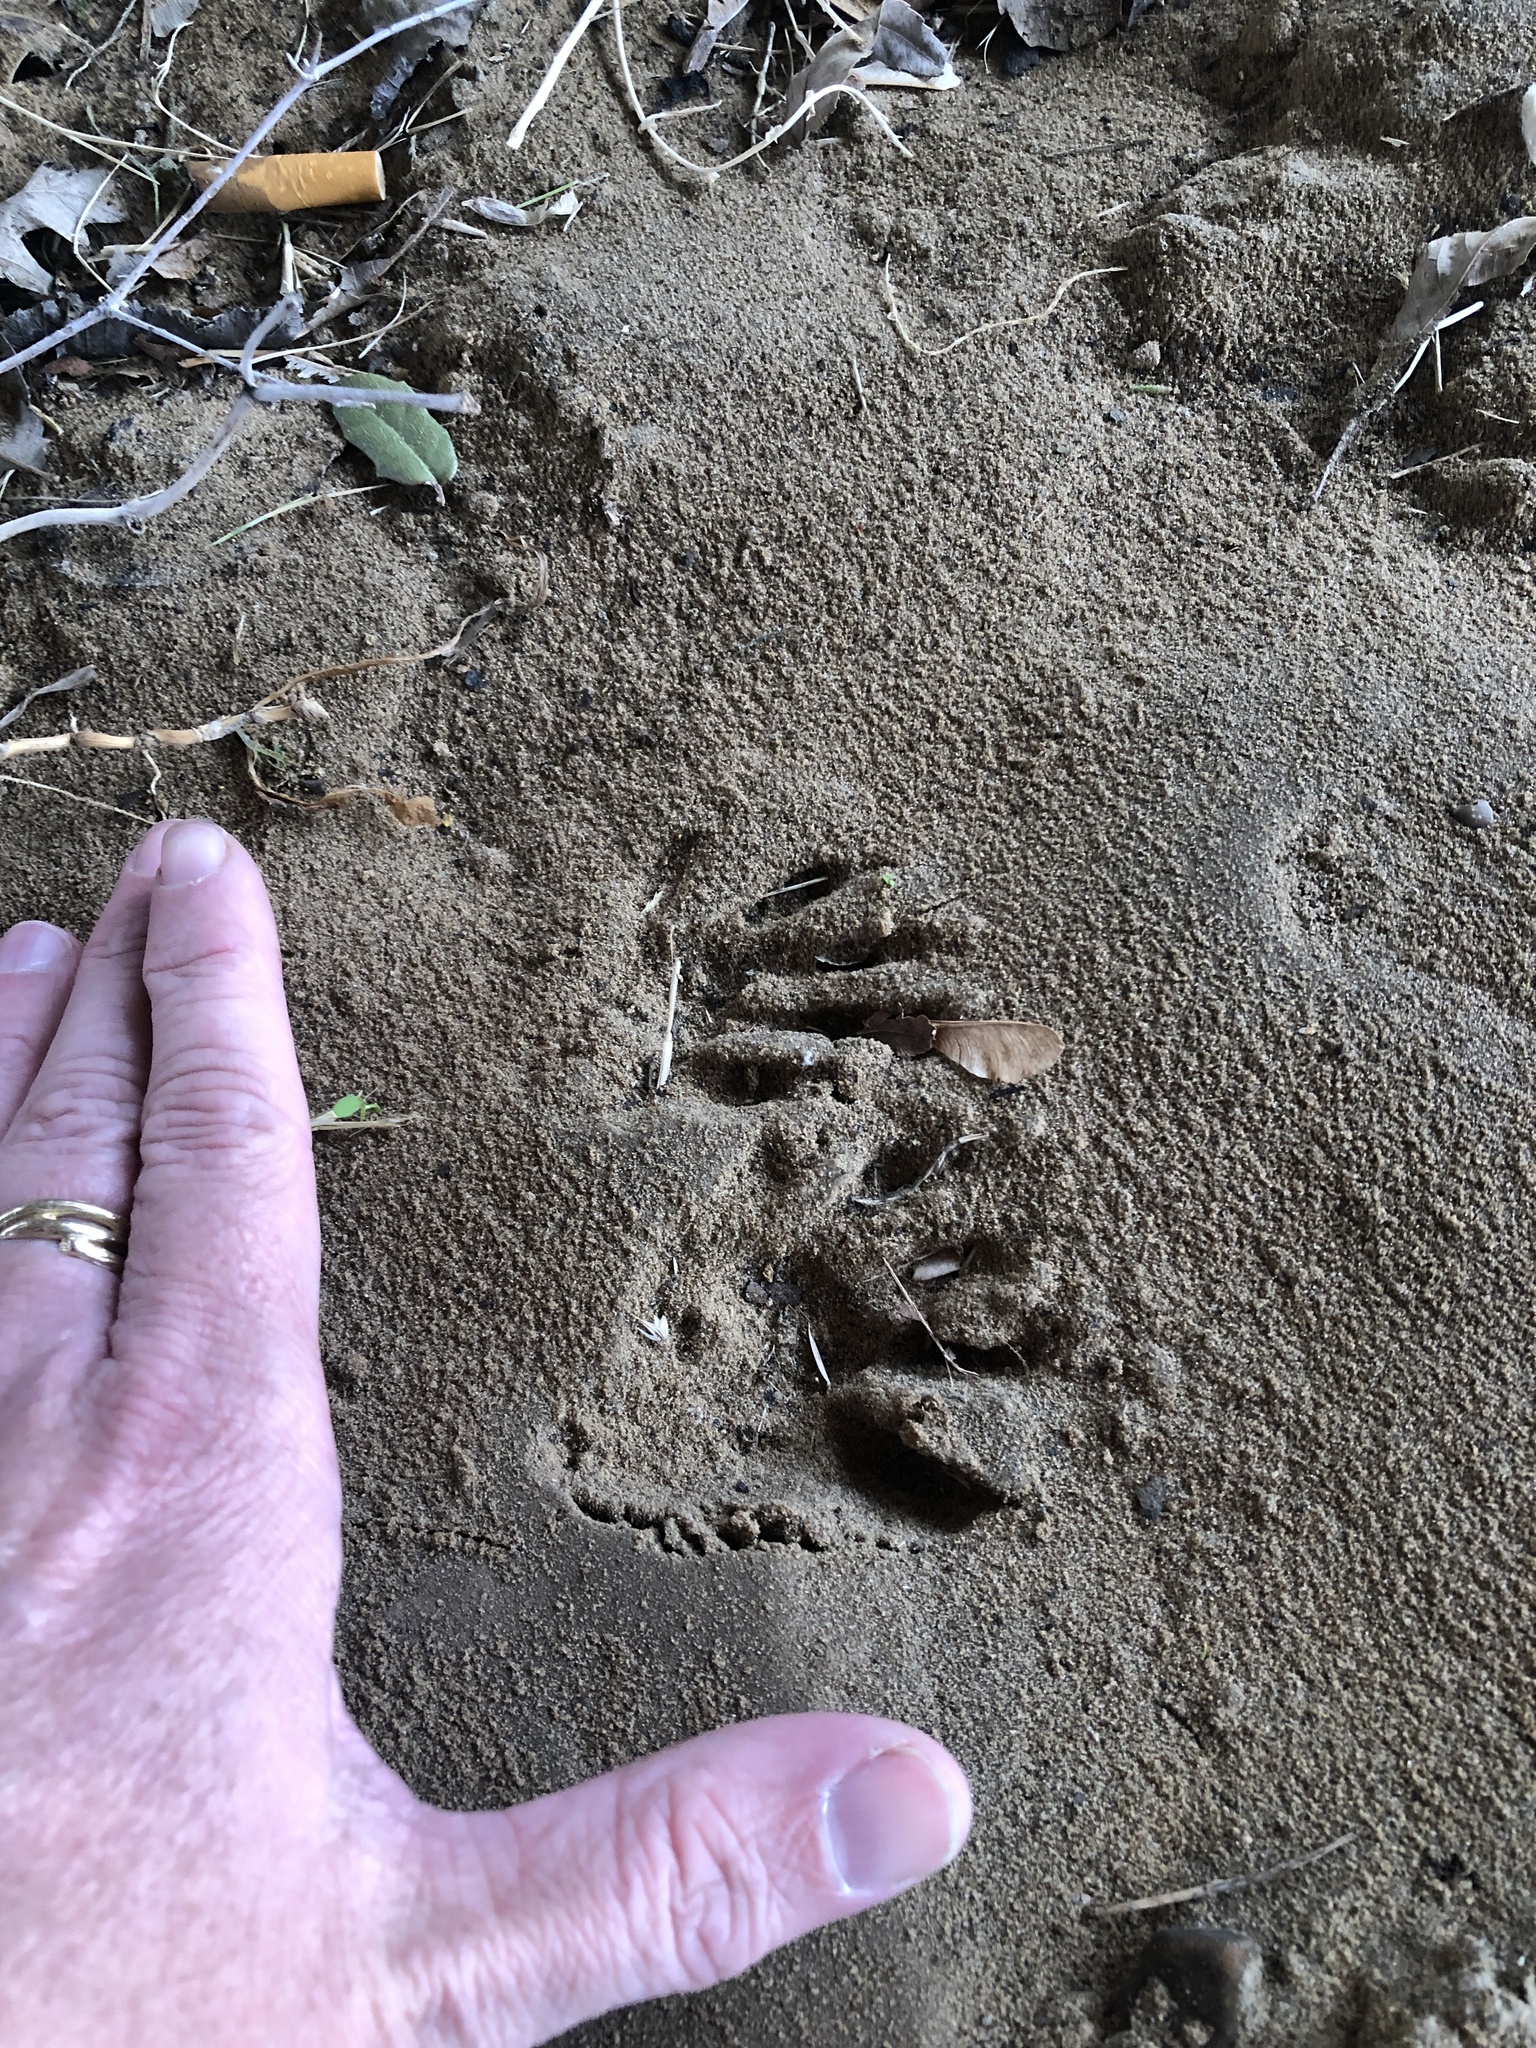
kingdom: Animalia
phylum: Chordata
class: Mammalia
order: Carnivora
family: Procyonidae
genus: Procyon
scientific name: Procyon lotor
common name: Raccoon
